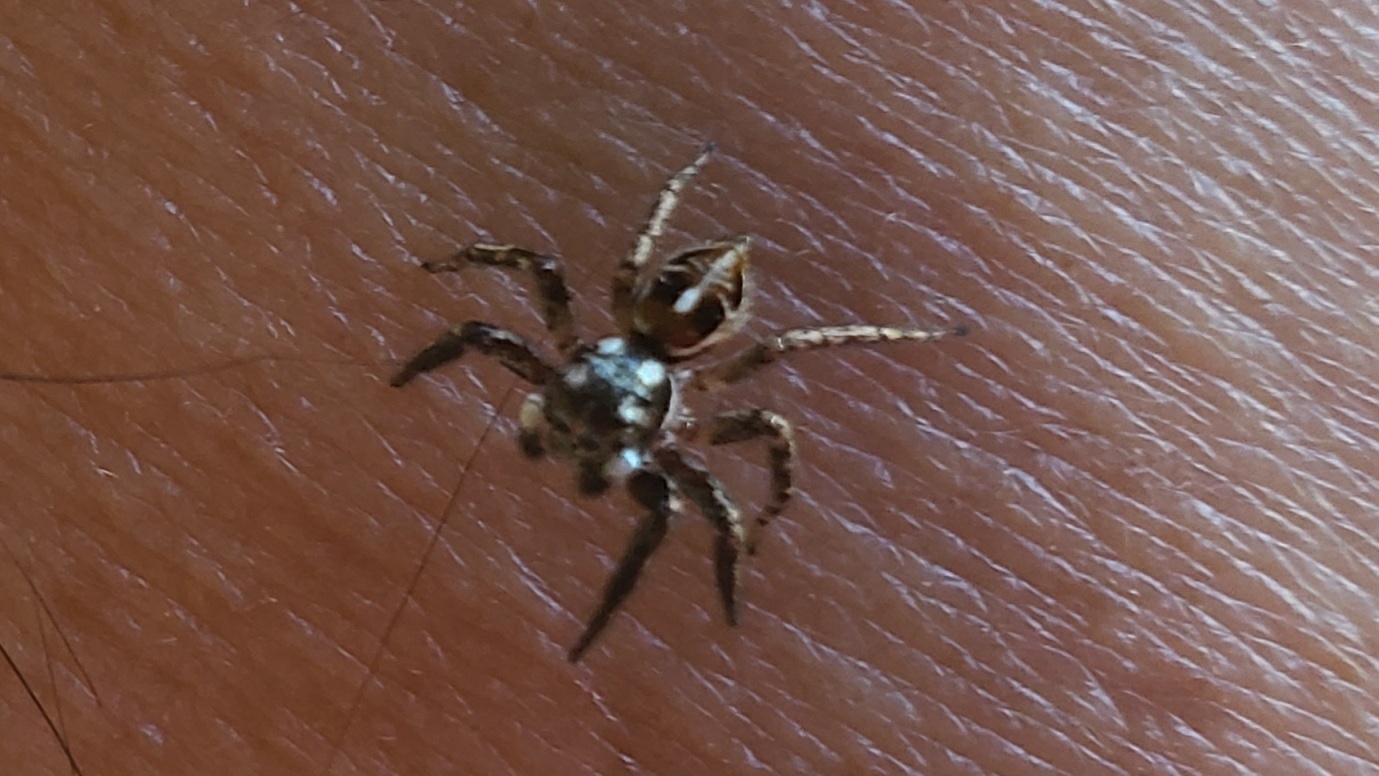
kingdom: Animalia
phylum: Arthropoda
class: Arachnida
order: Araneae
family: Salticidae
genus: Anasaitis
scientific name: Anasaitis canosa
